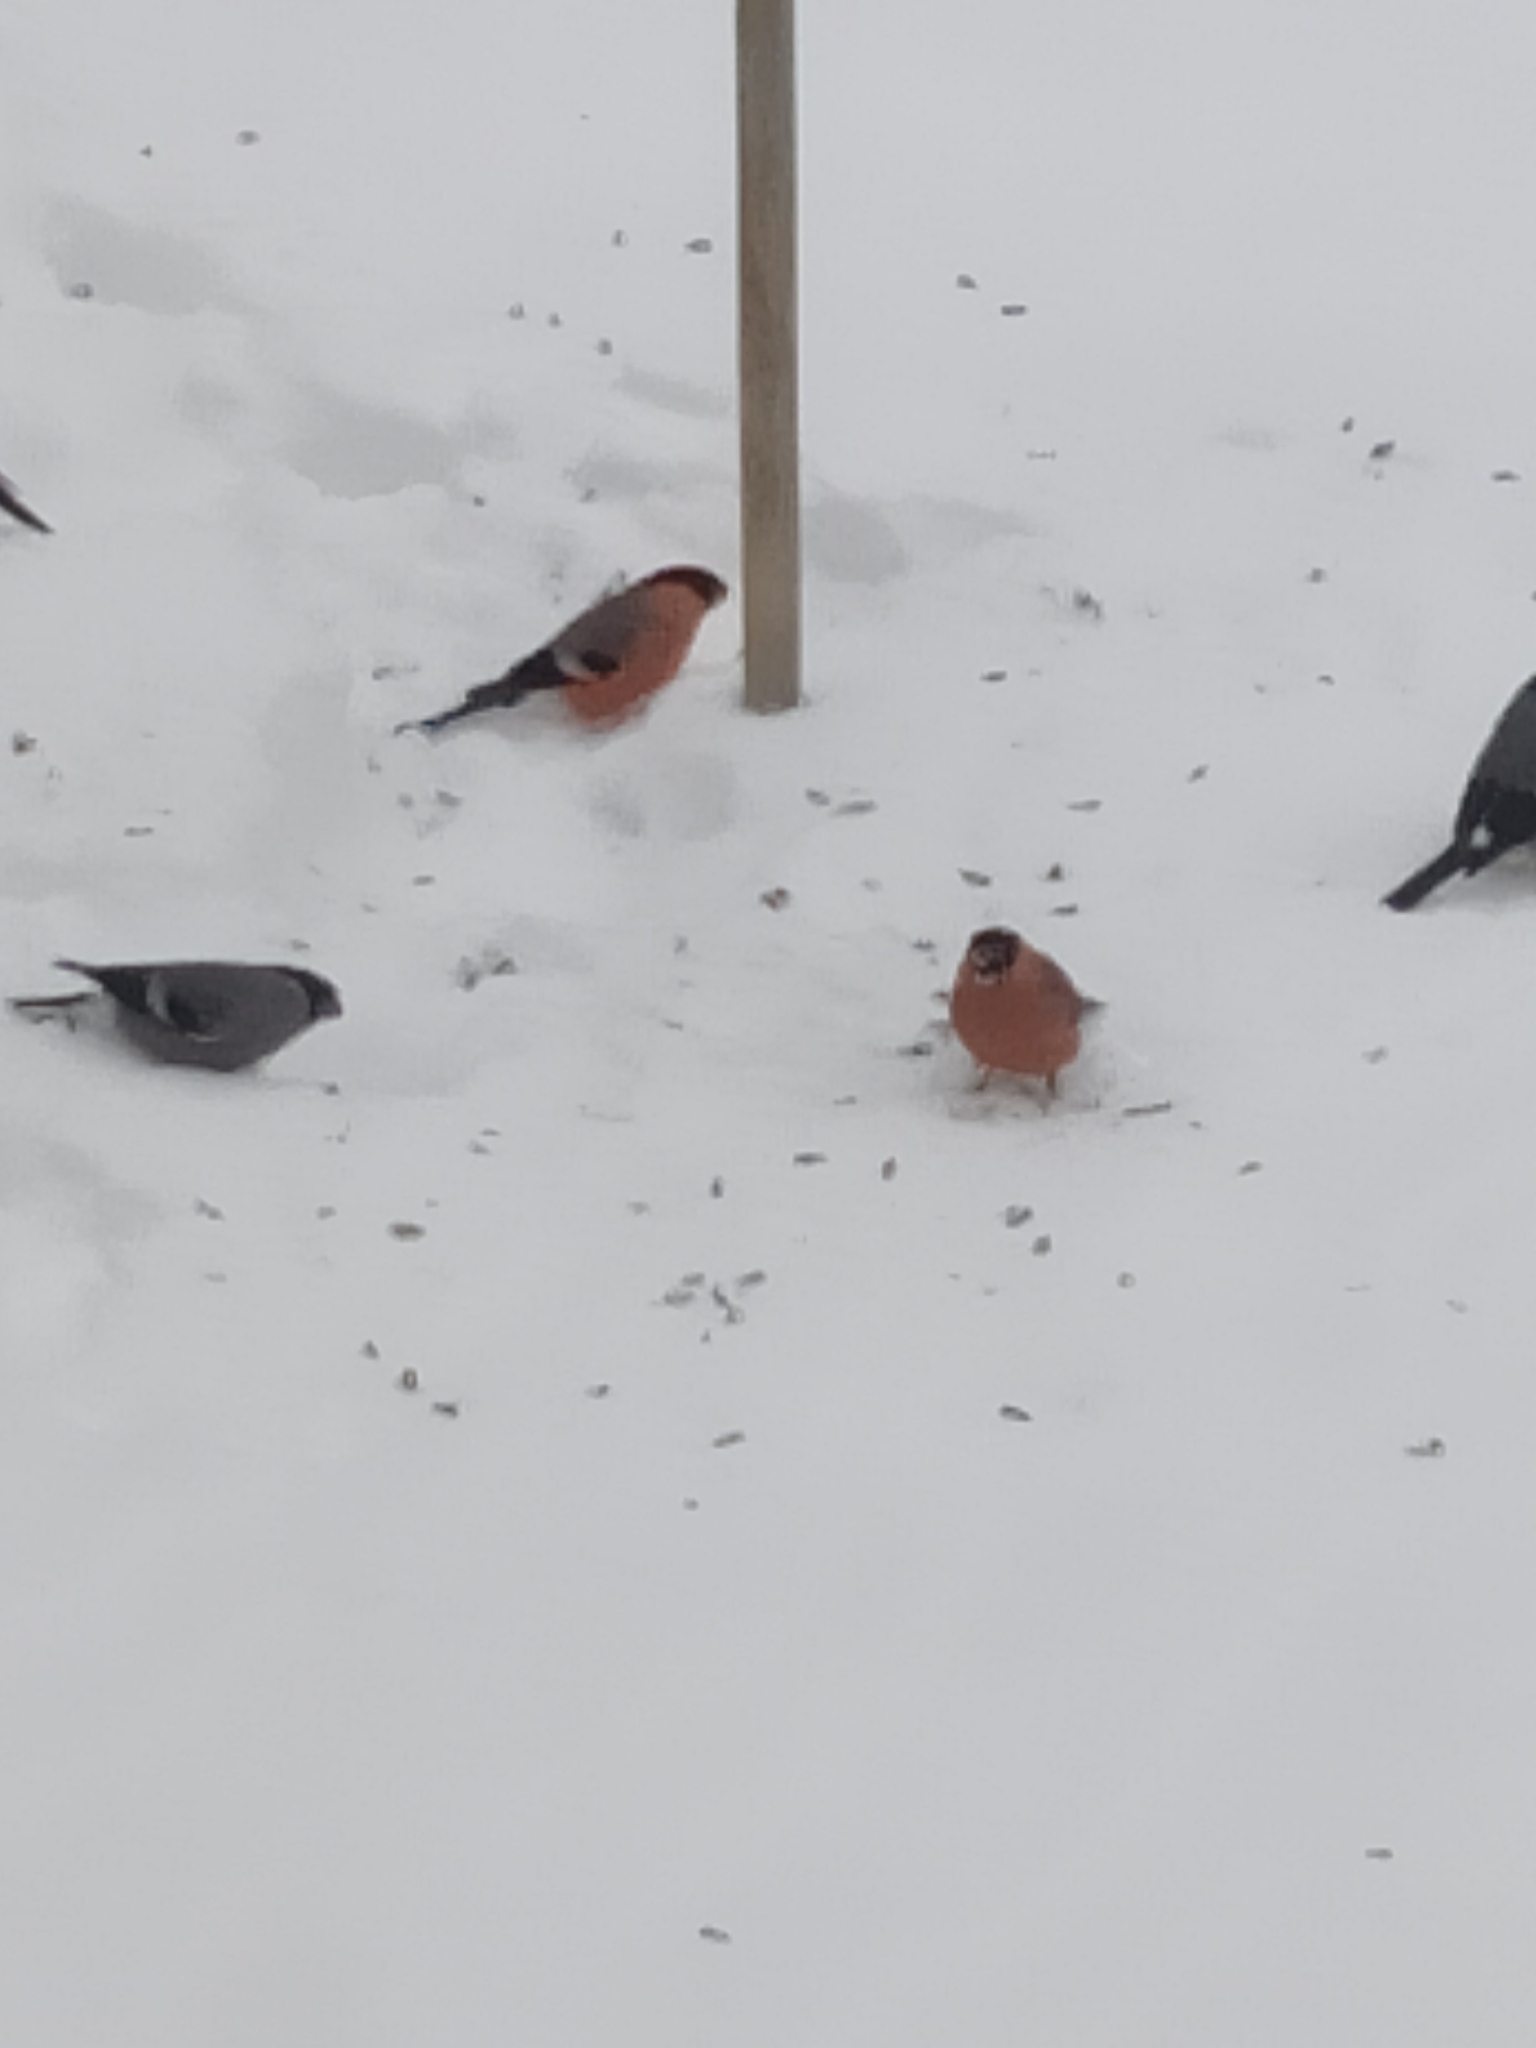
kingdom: Animalia
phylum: Chordata
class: Aves
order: Passeriformes
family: Fringillidae
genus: Pyrrhula
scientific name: Pyrrhula pyrrhula
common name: Eurasian bullfinch
